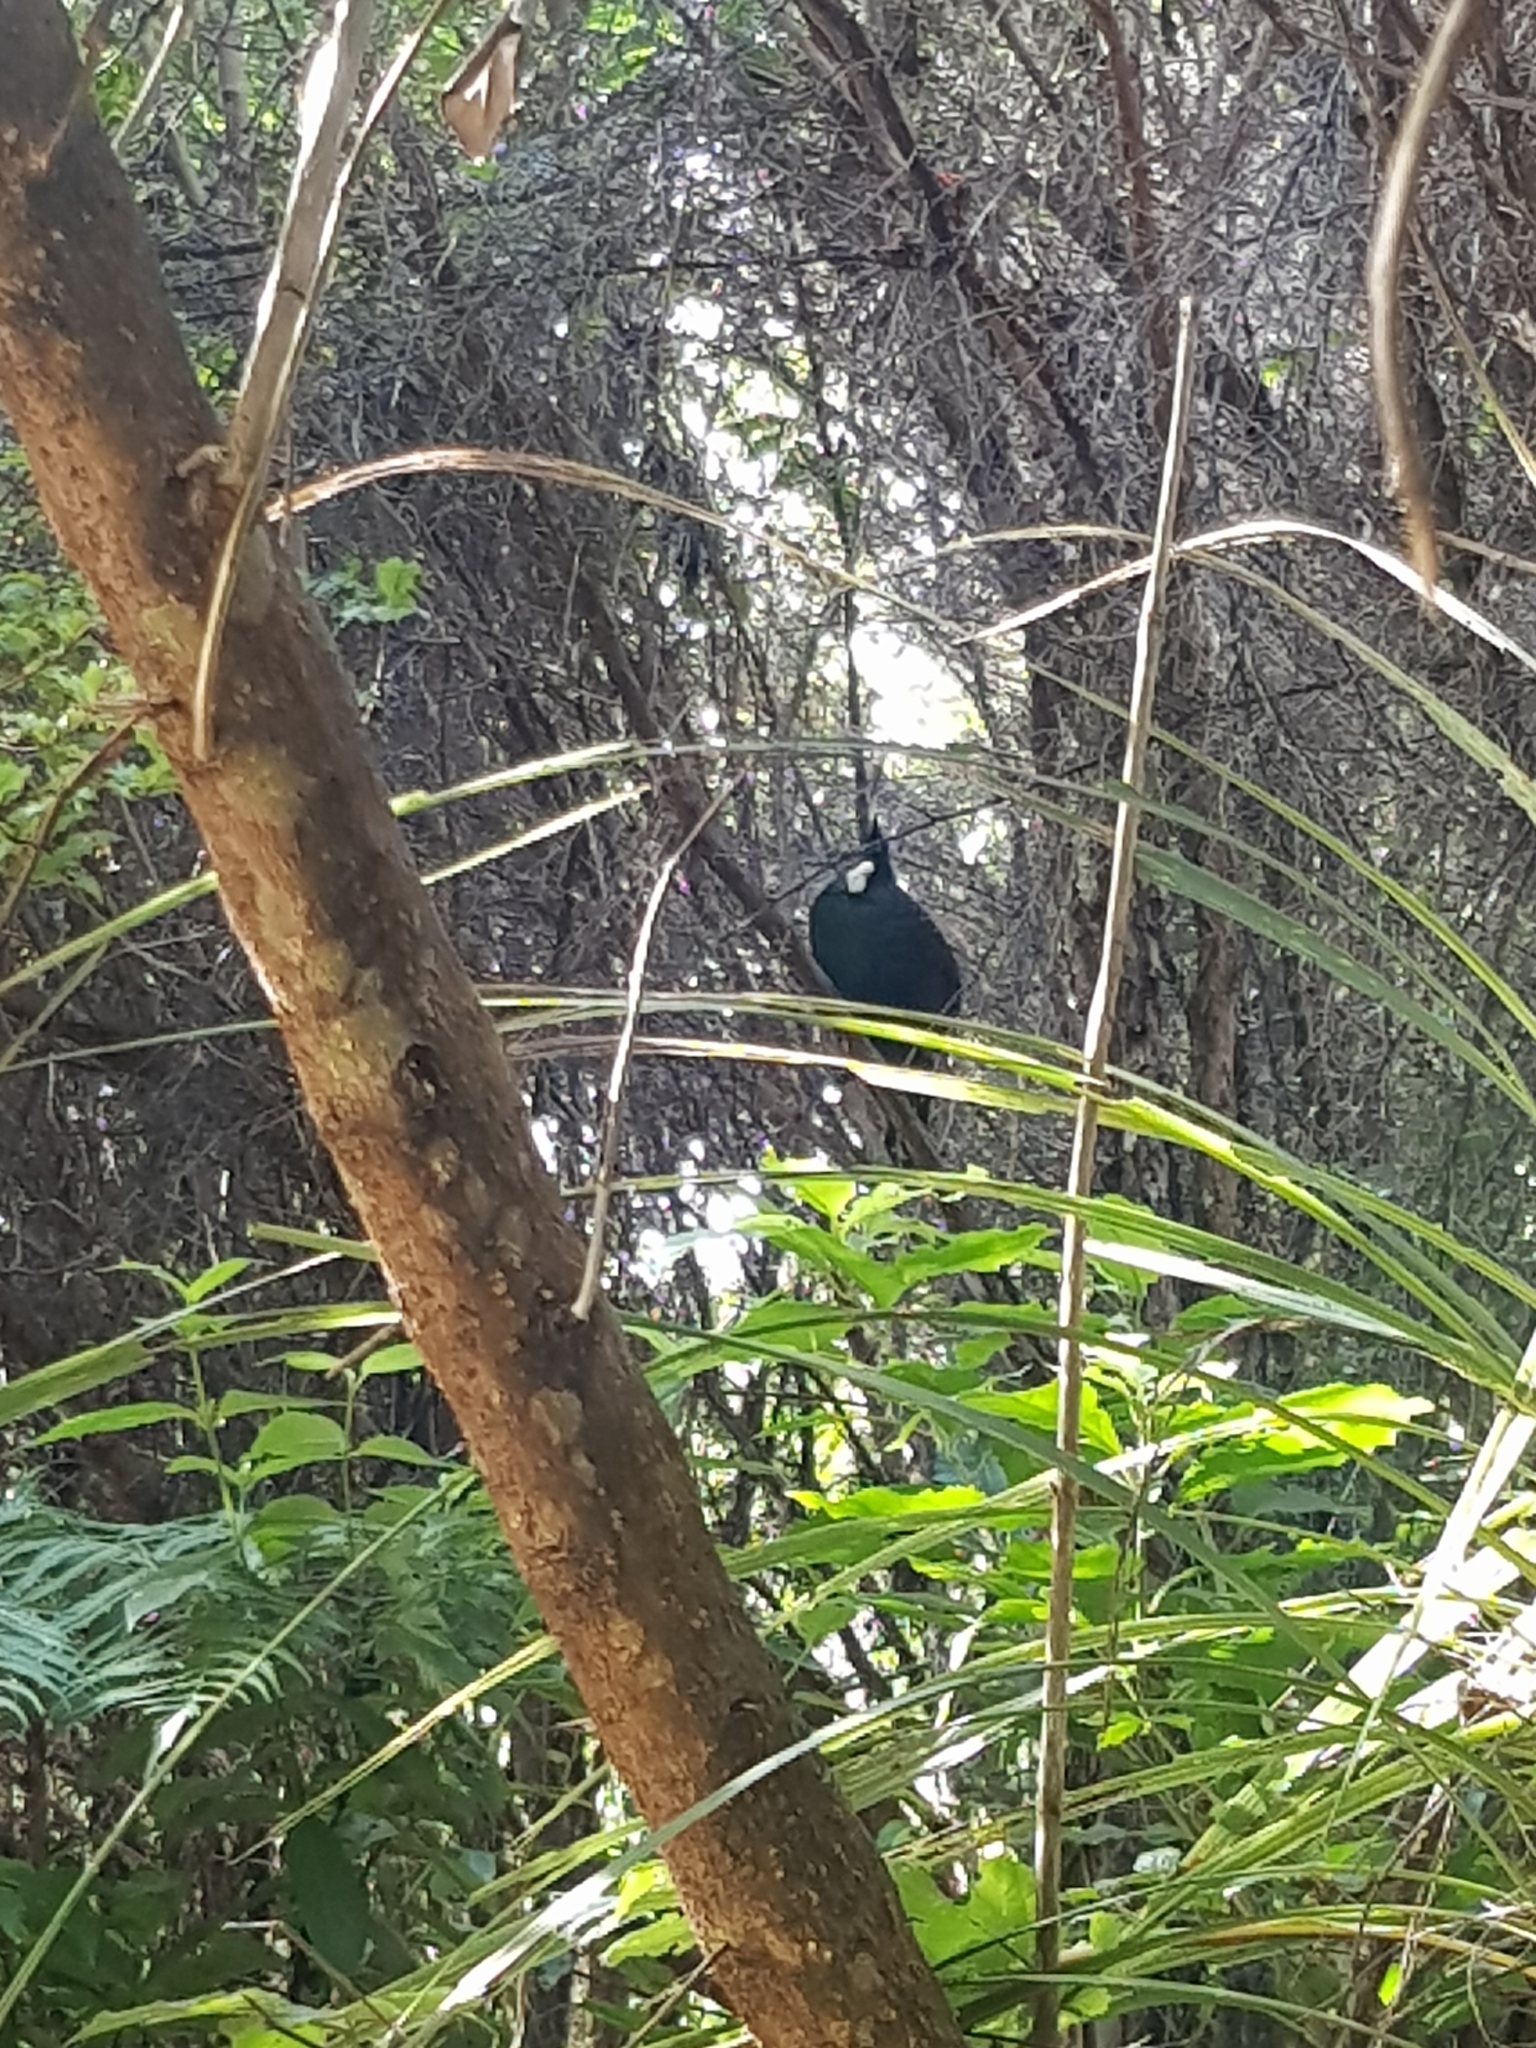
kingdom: Animalia
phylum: Chordata
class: Aves
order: Passeriformes
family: Meliphagidae
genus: Prosthemadera
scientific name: Prosthemadera novaeseelandiae
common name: Tui
